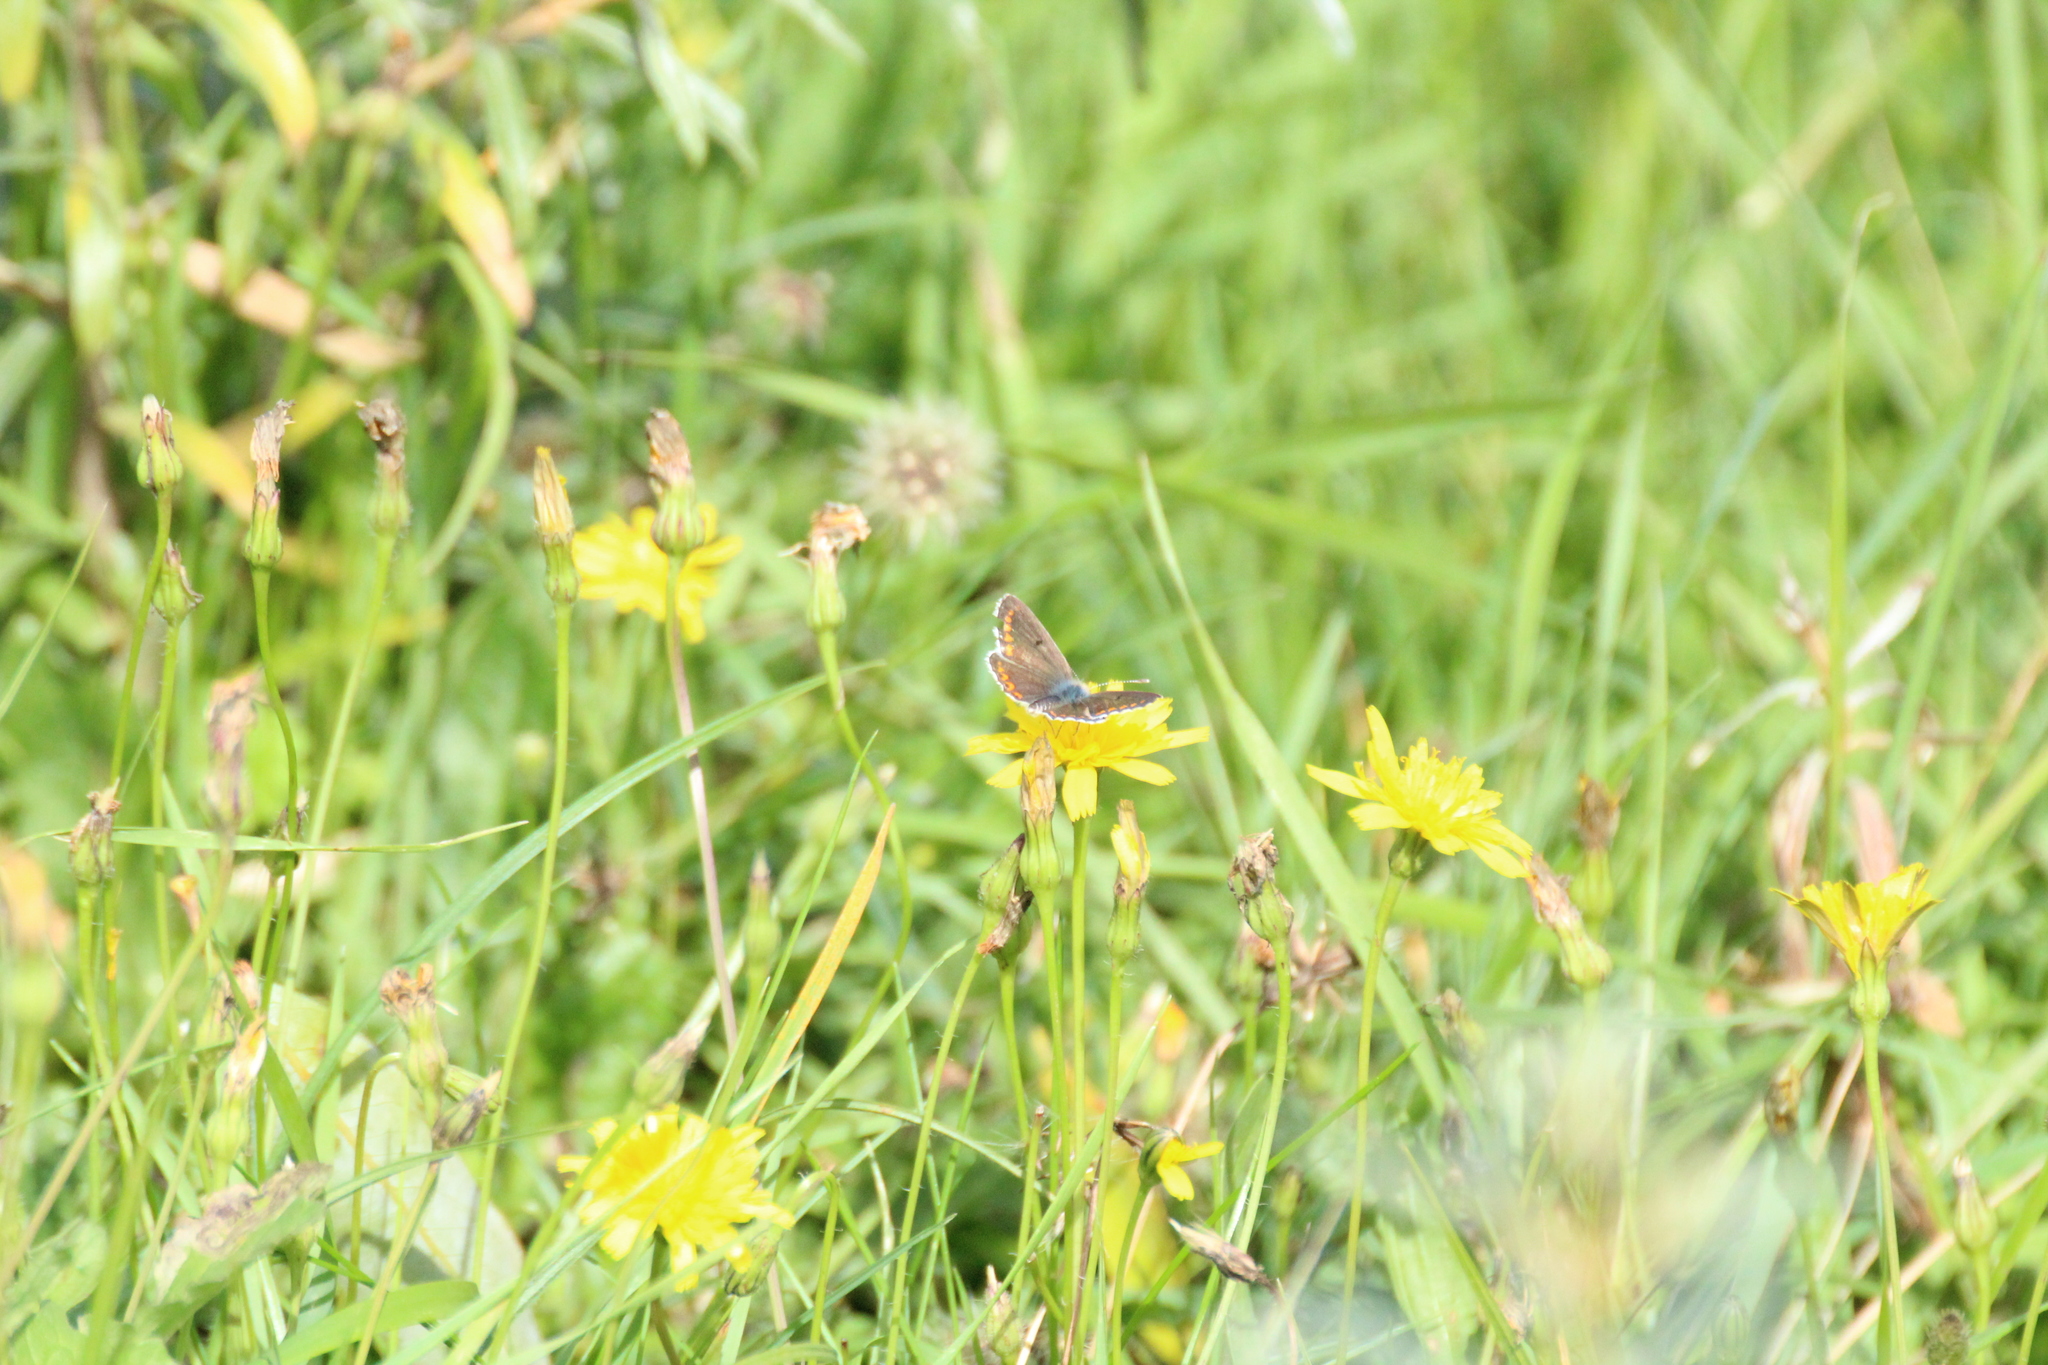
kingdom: Animalia
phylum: Arthropoda
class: Insecta
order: Lepidoptera
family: Lycaenidae
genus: Aricia
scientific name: Aricia agestis
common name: Brown argus
